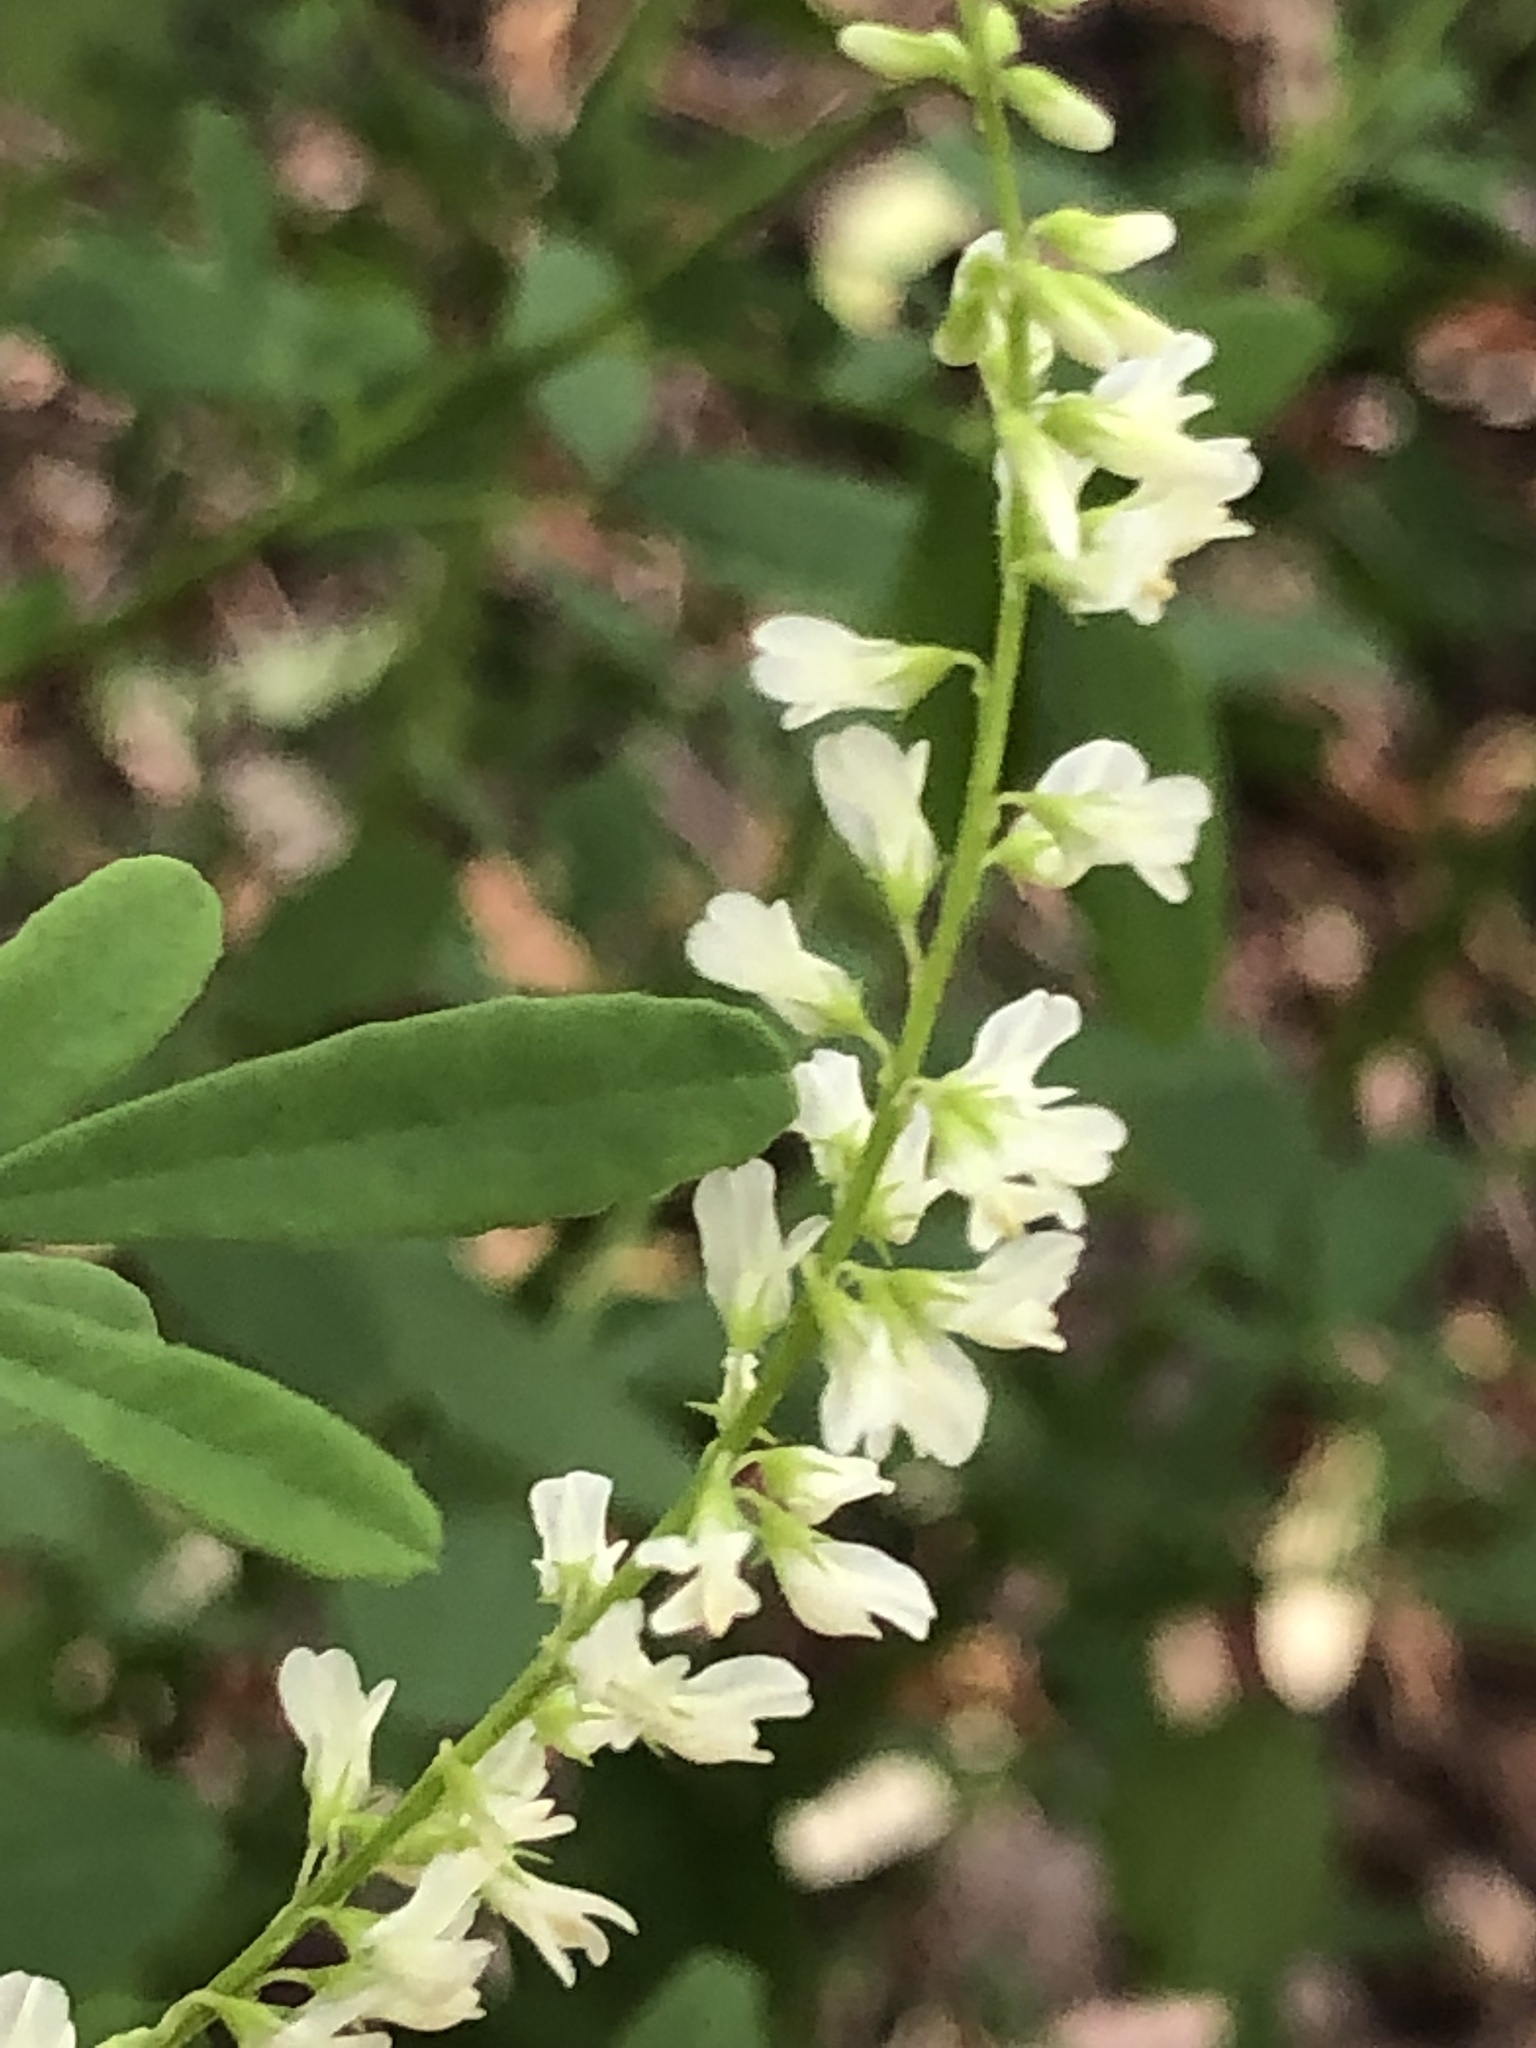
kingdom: Plantae
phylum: Tracheophyta
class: Magnoliopsida
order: Fabales
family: Fabaceae
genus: Melilotus
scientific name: Melilotus albus
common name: White melilot
